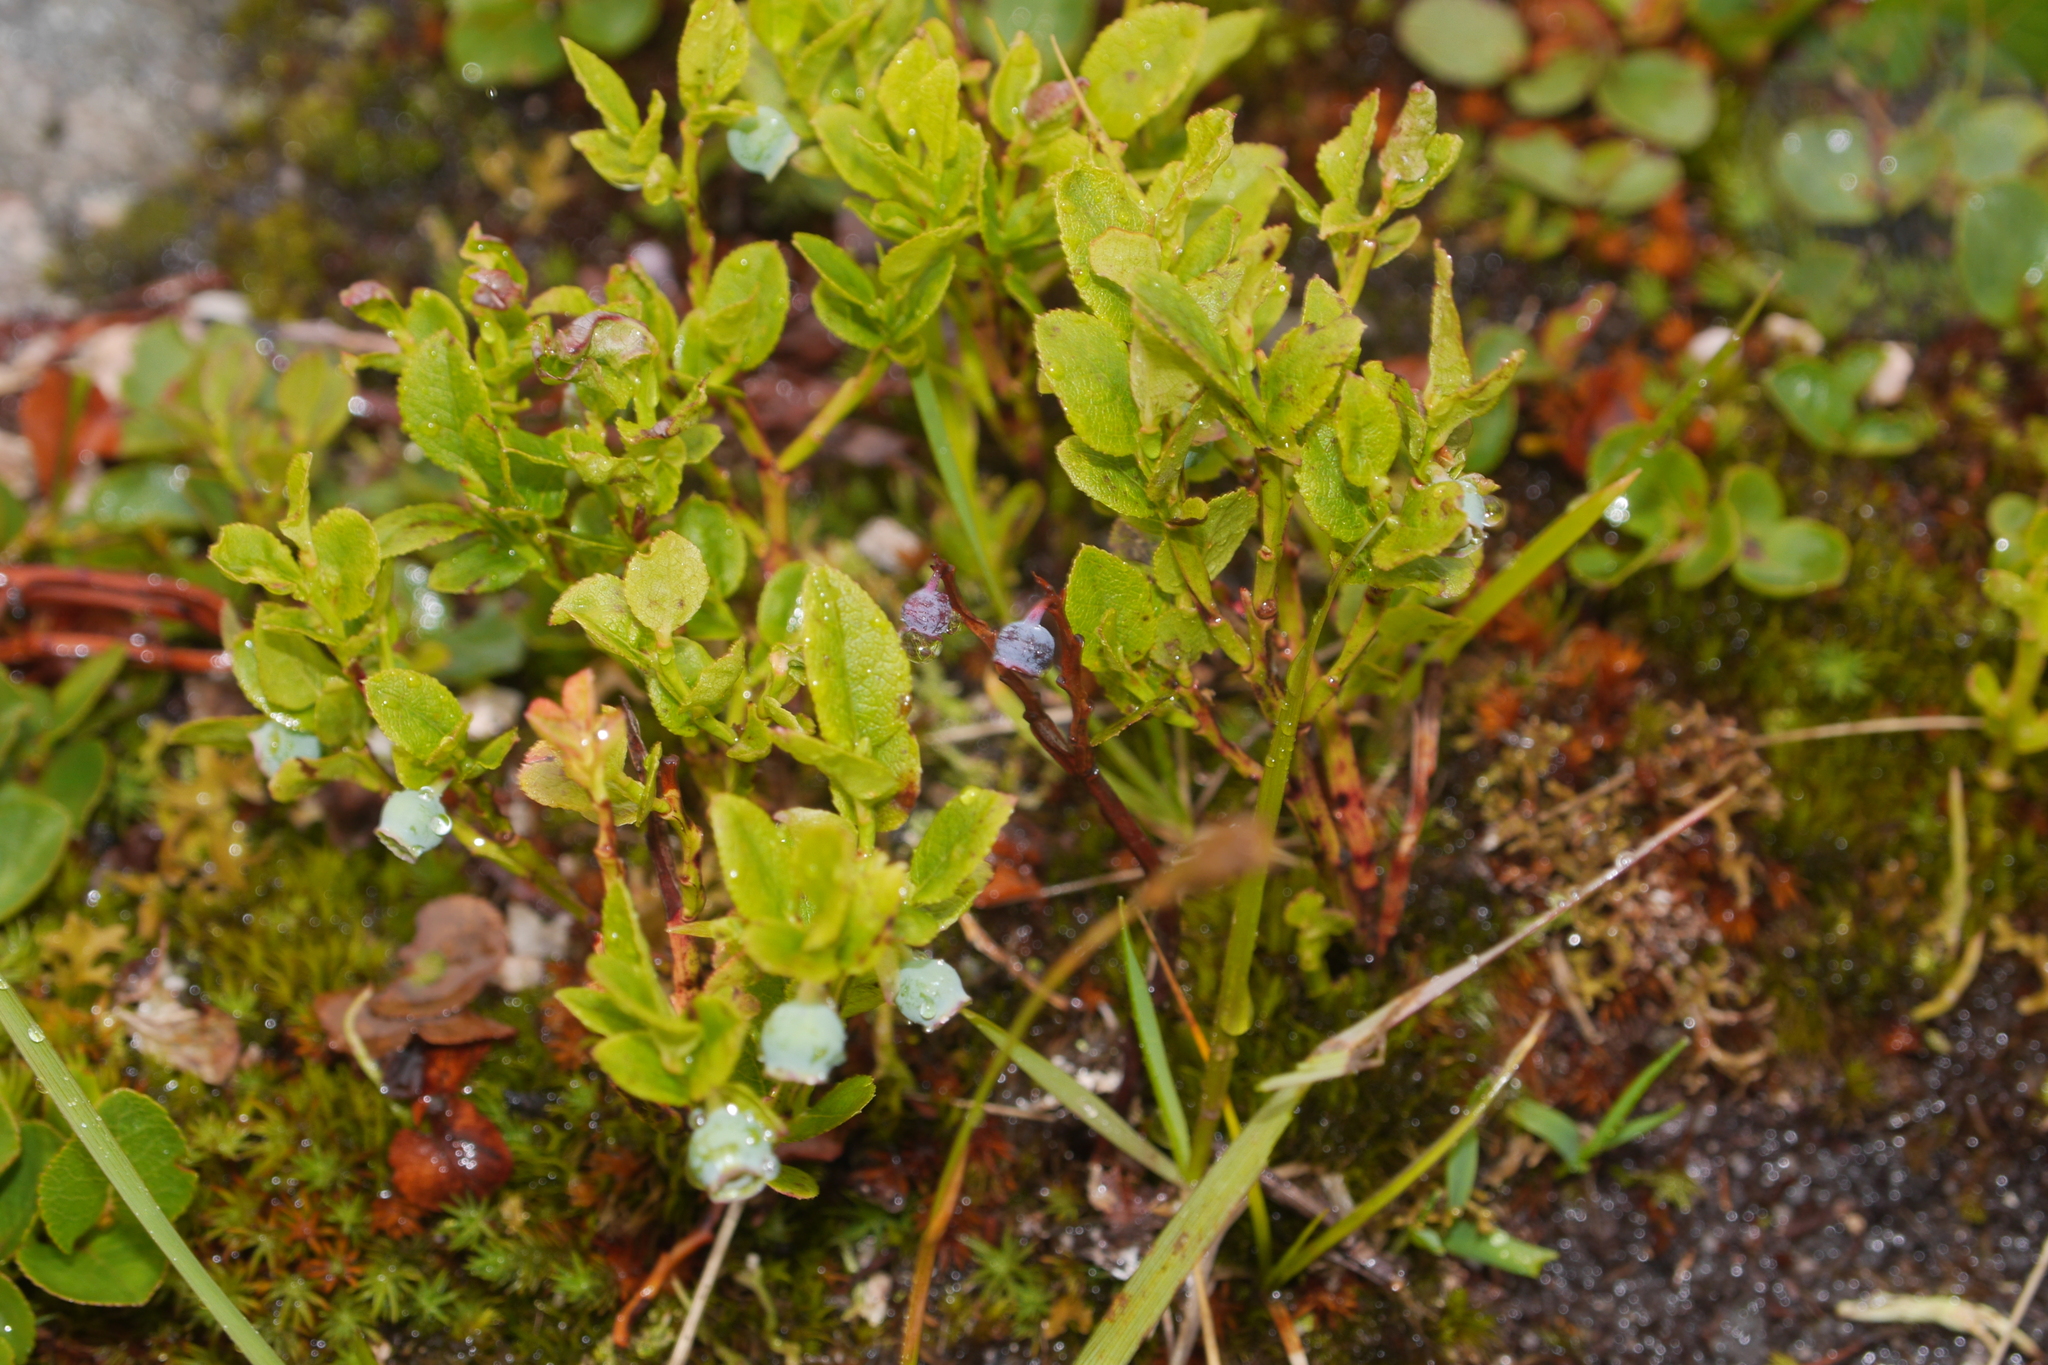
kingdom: Plantae
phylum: Tracheophyta
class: Magnoliopsida
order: Ericales
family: Ericaceae
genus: Vaccinium
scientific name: Vaccinium myrtillus
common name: Bilberry
